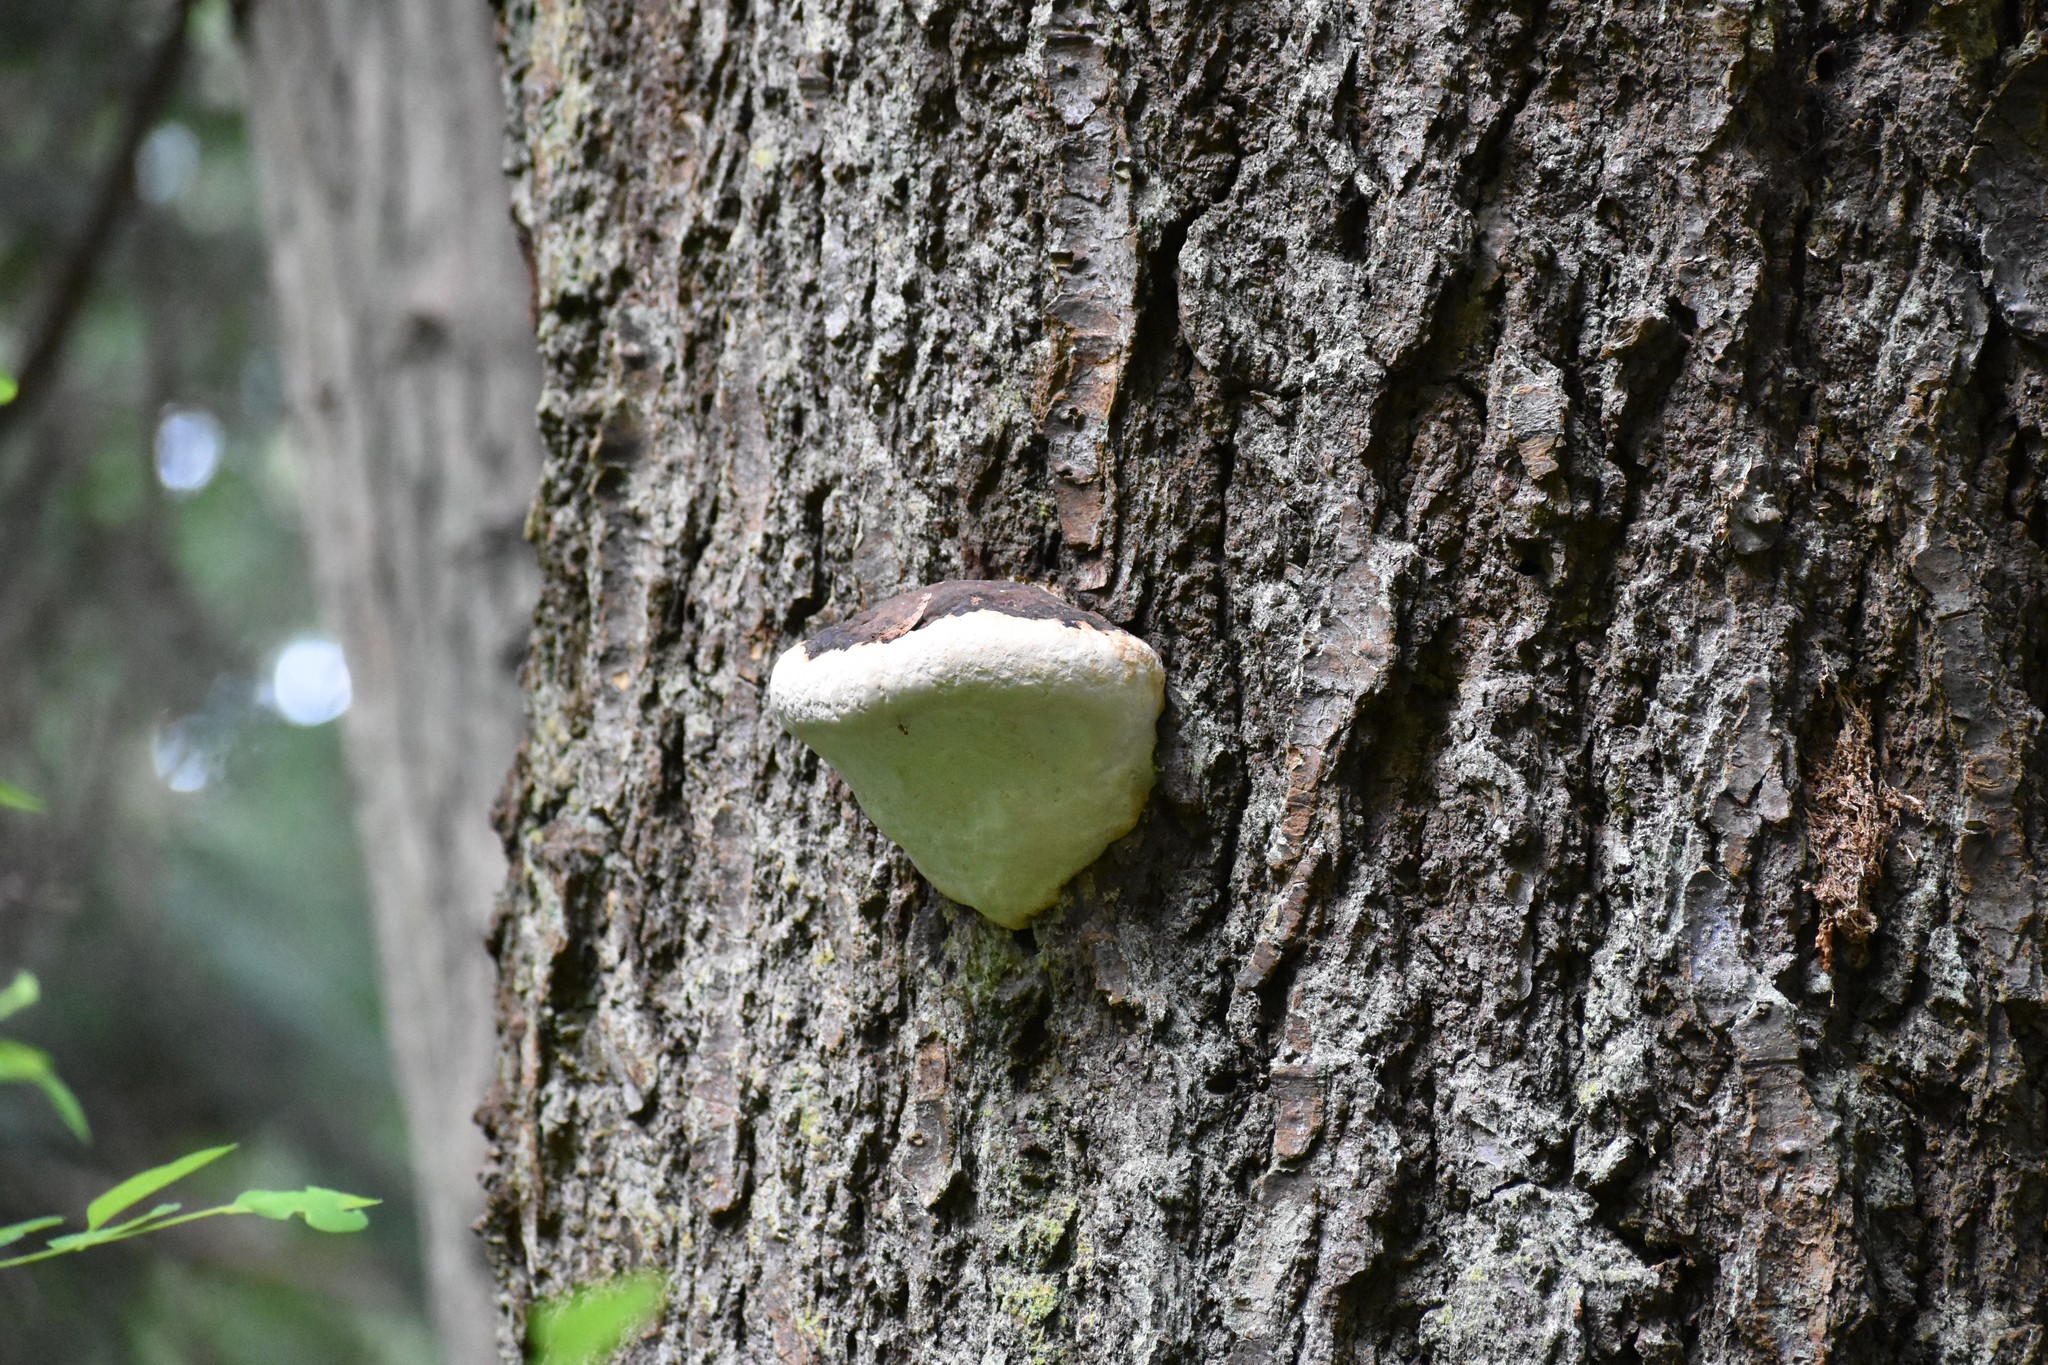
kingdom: Fungi
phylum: Basidiomycota
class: Agaricomycetes
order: Polyporales
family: Fomitopsidaceae
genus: Fomitopsis
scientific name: Fomitopsis ochracea
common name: American brown fomitopsis
